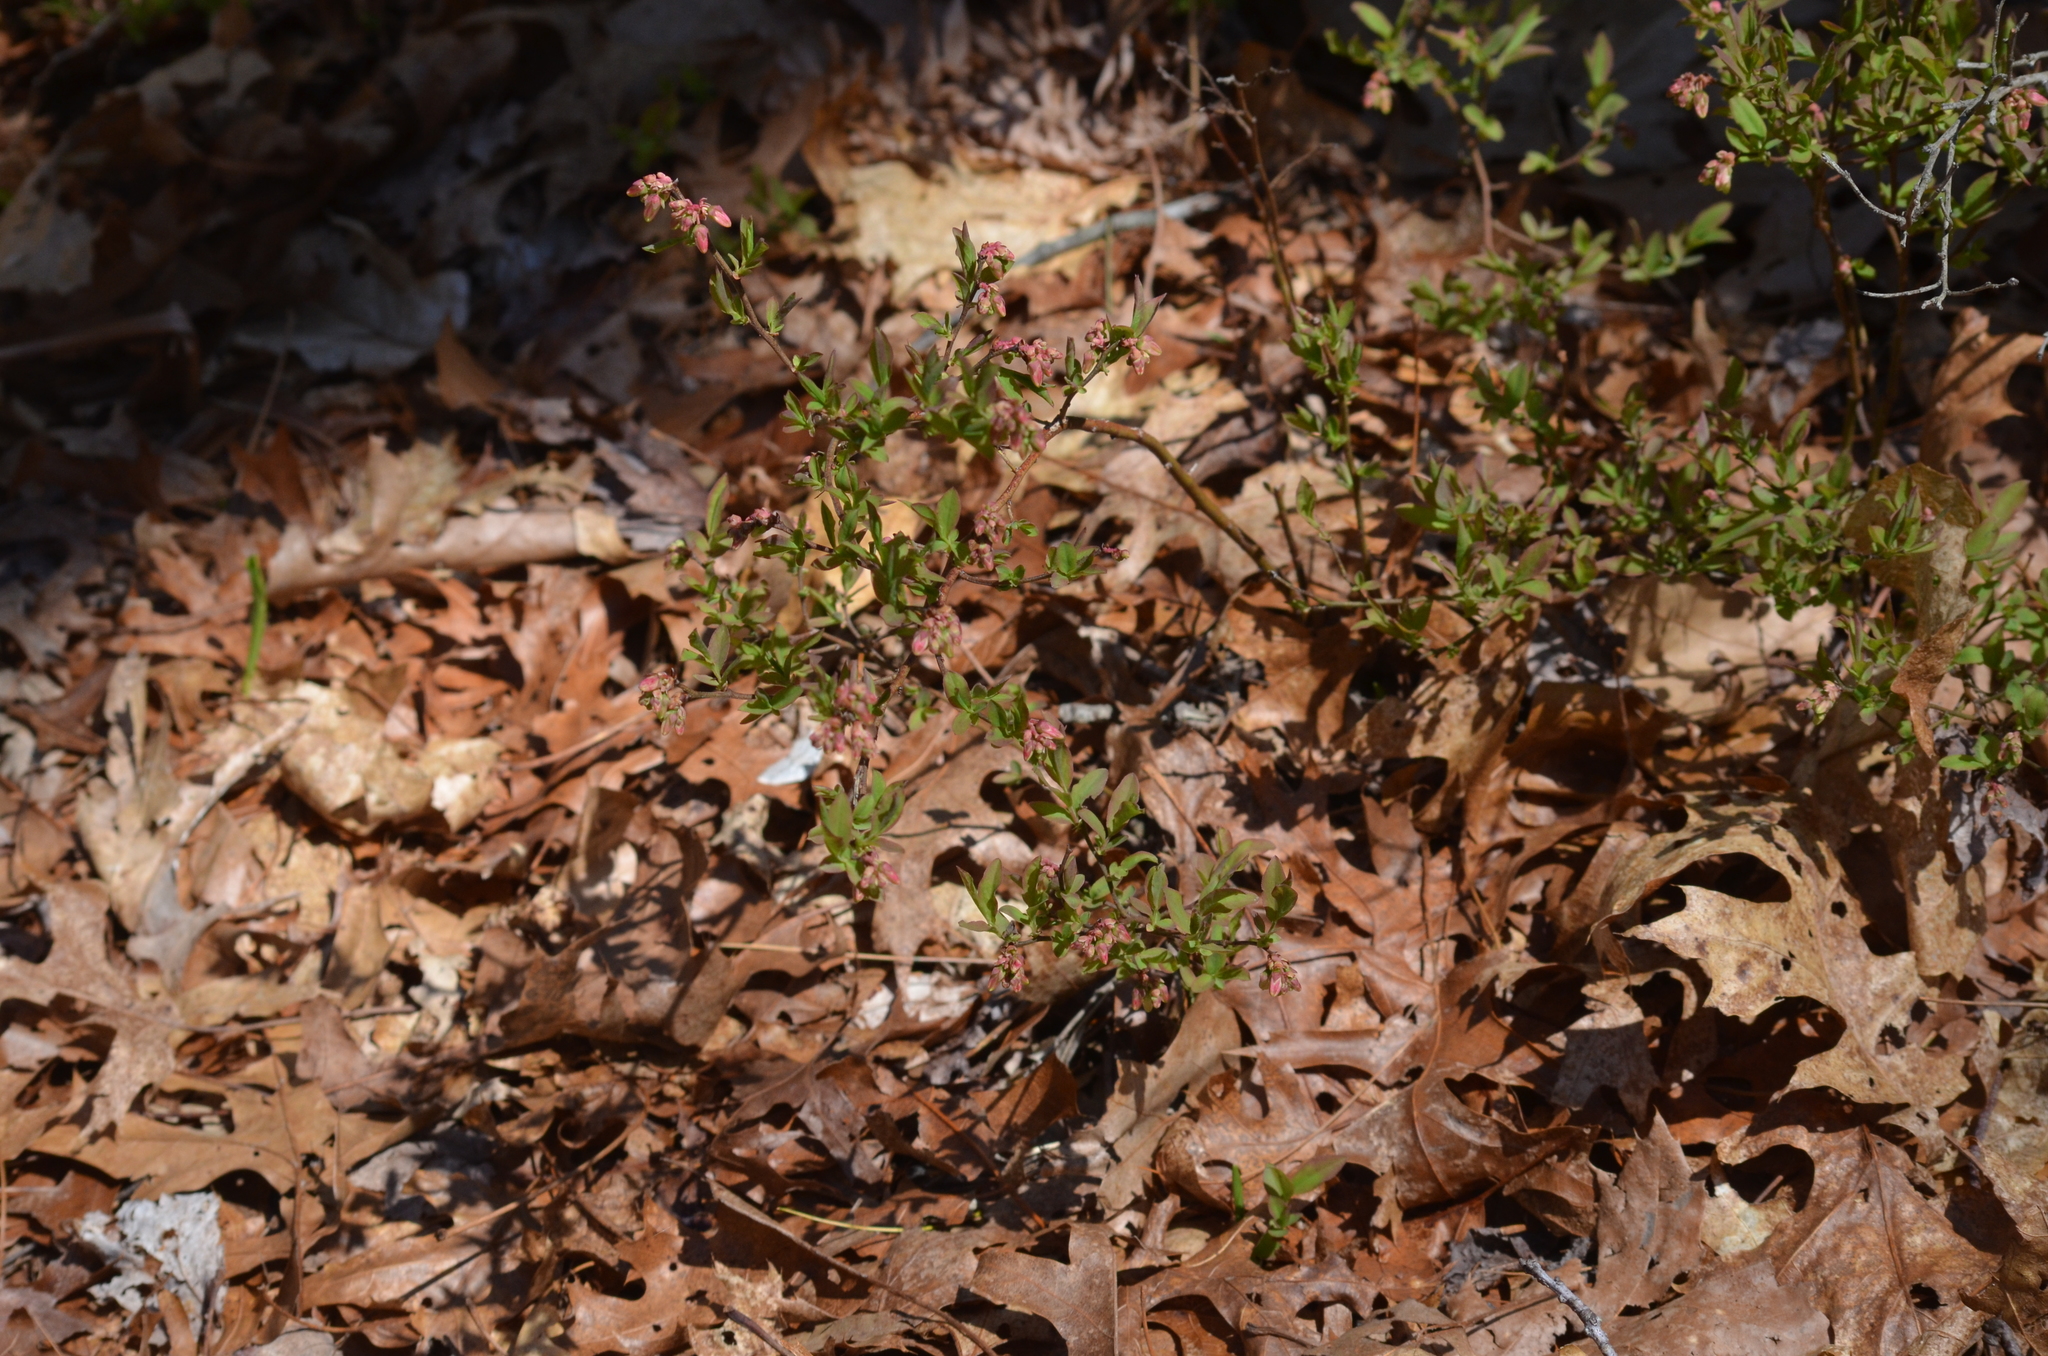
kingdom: Plantae
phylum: Tracheophyta
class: Magnoliopsida
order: Ericales
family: Ericaceae
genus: Vaccinium
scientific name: Vaccinium angustifolium
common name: Early lowbush blueberry
